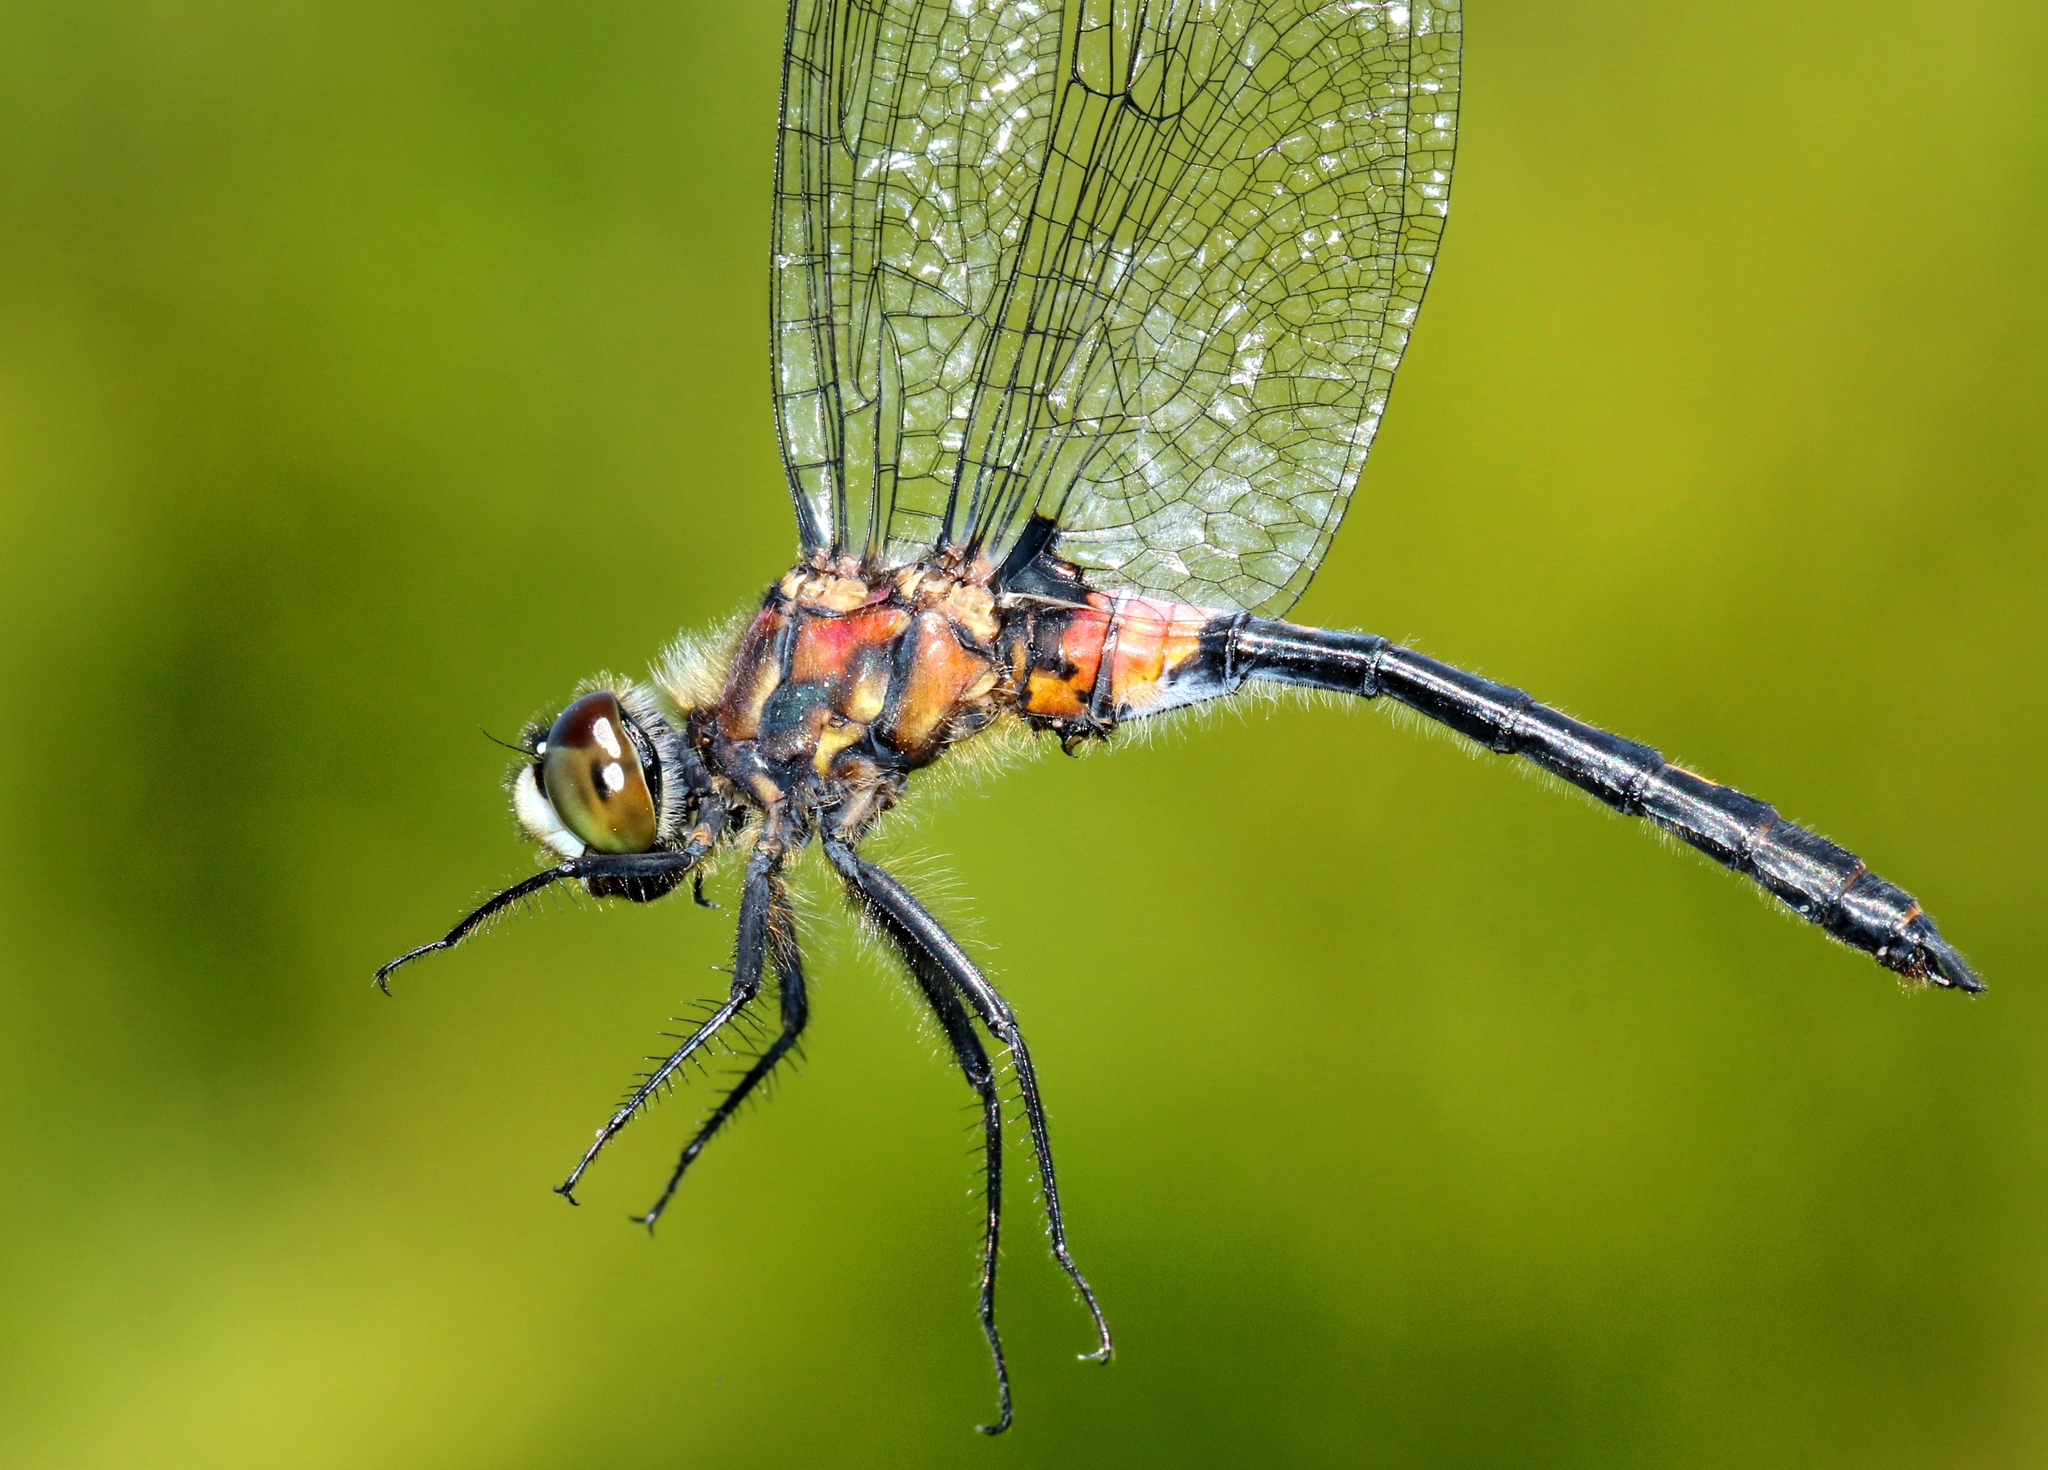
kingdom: Animalia
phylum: Arthropoda
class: Insecta
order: Odonata
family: Libellulidae
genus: Leucorrhinia
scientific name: Leucorrhinia proxima
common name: Belted whiteface
